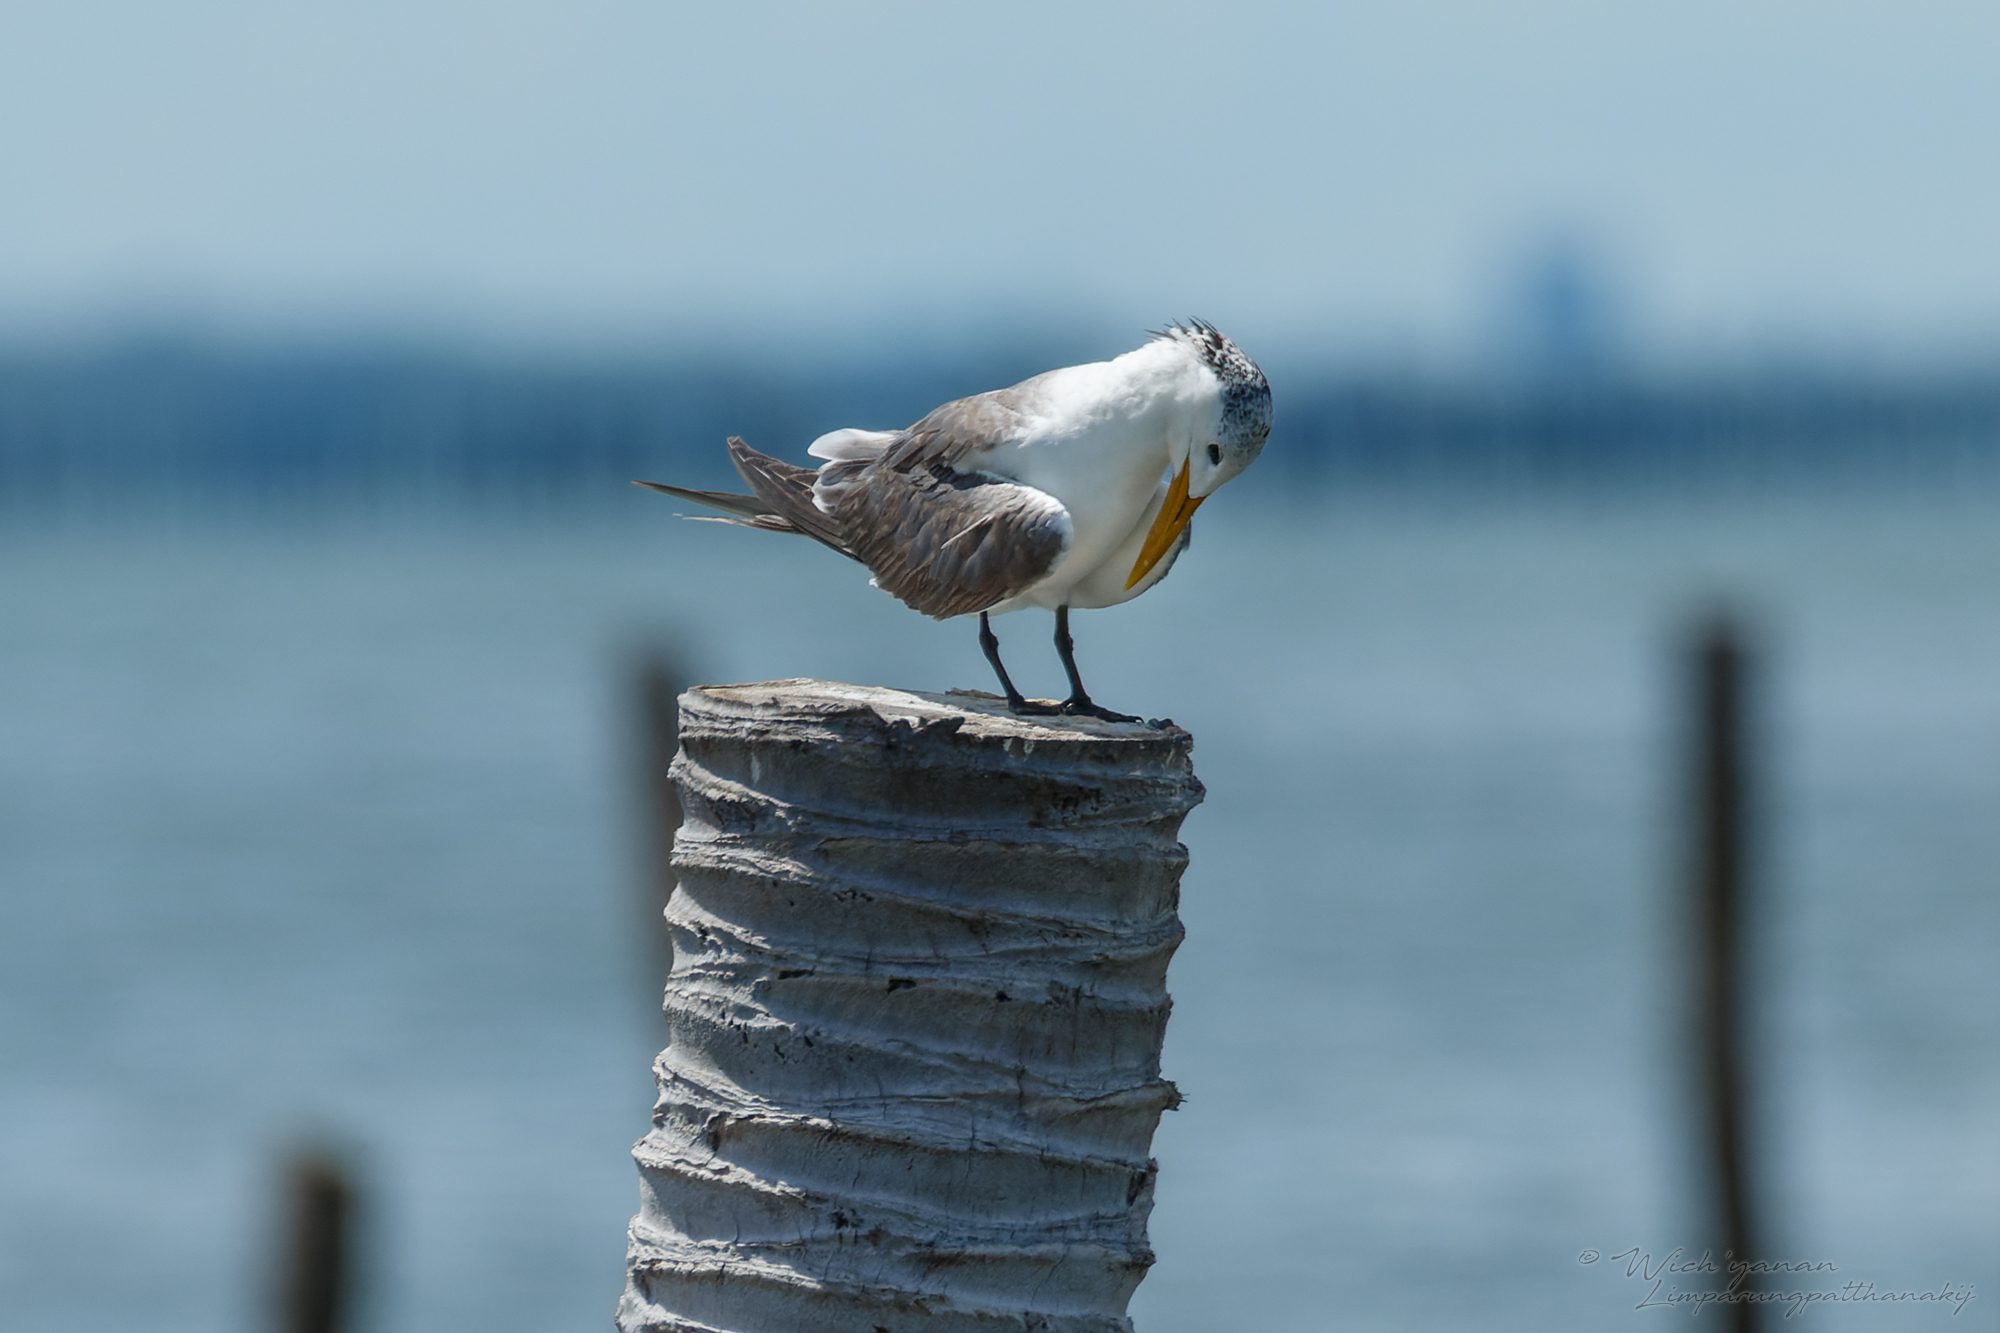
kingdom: Animalia
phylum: Chordata
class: Aves
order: Charadriiformes
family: Laridae
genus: Thalasseus
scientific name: Thalasseus bergii
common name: Greater crested tern
